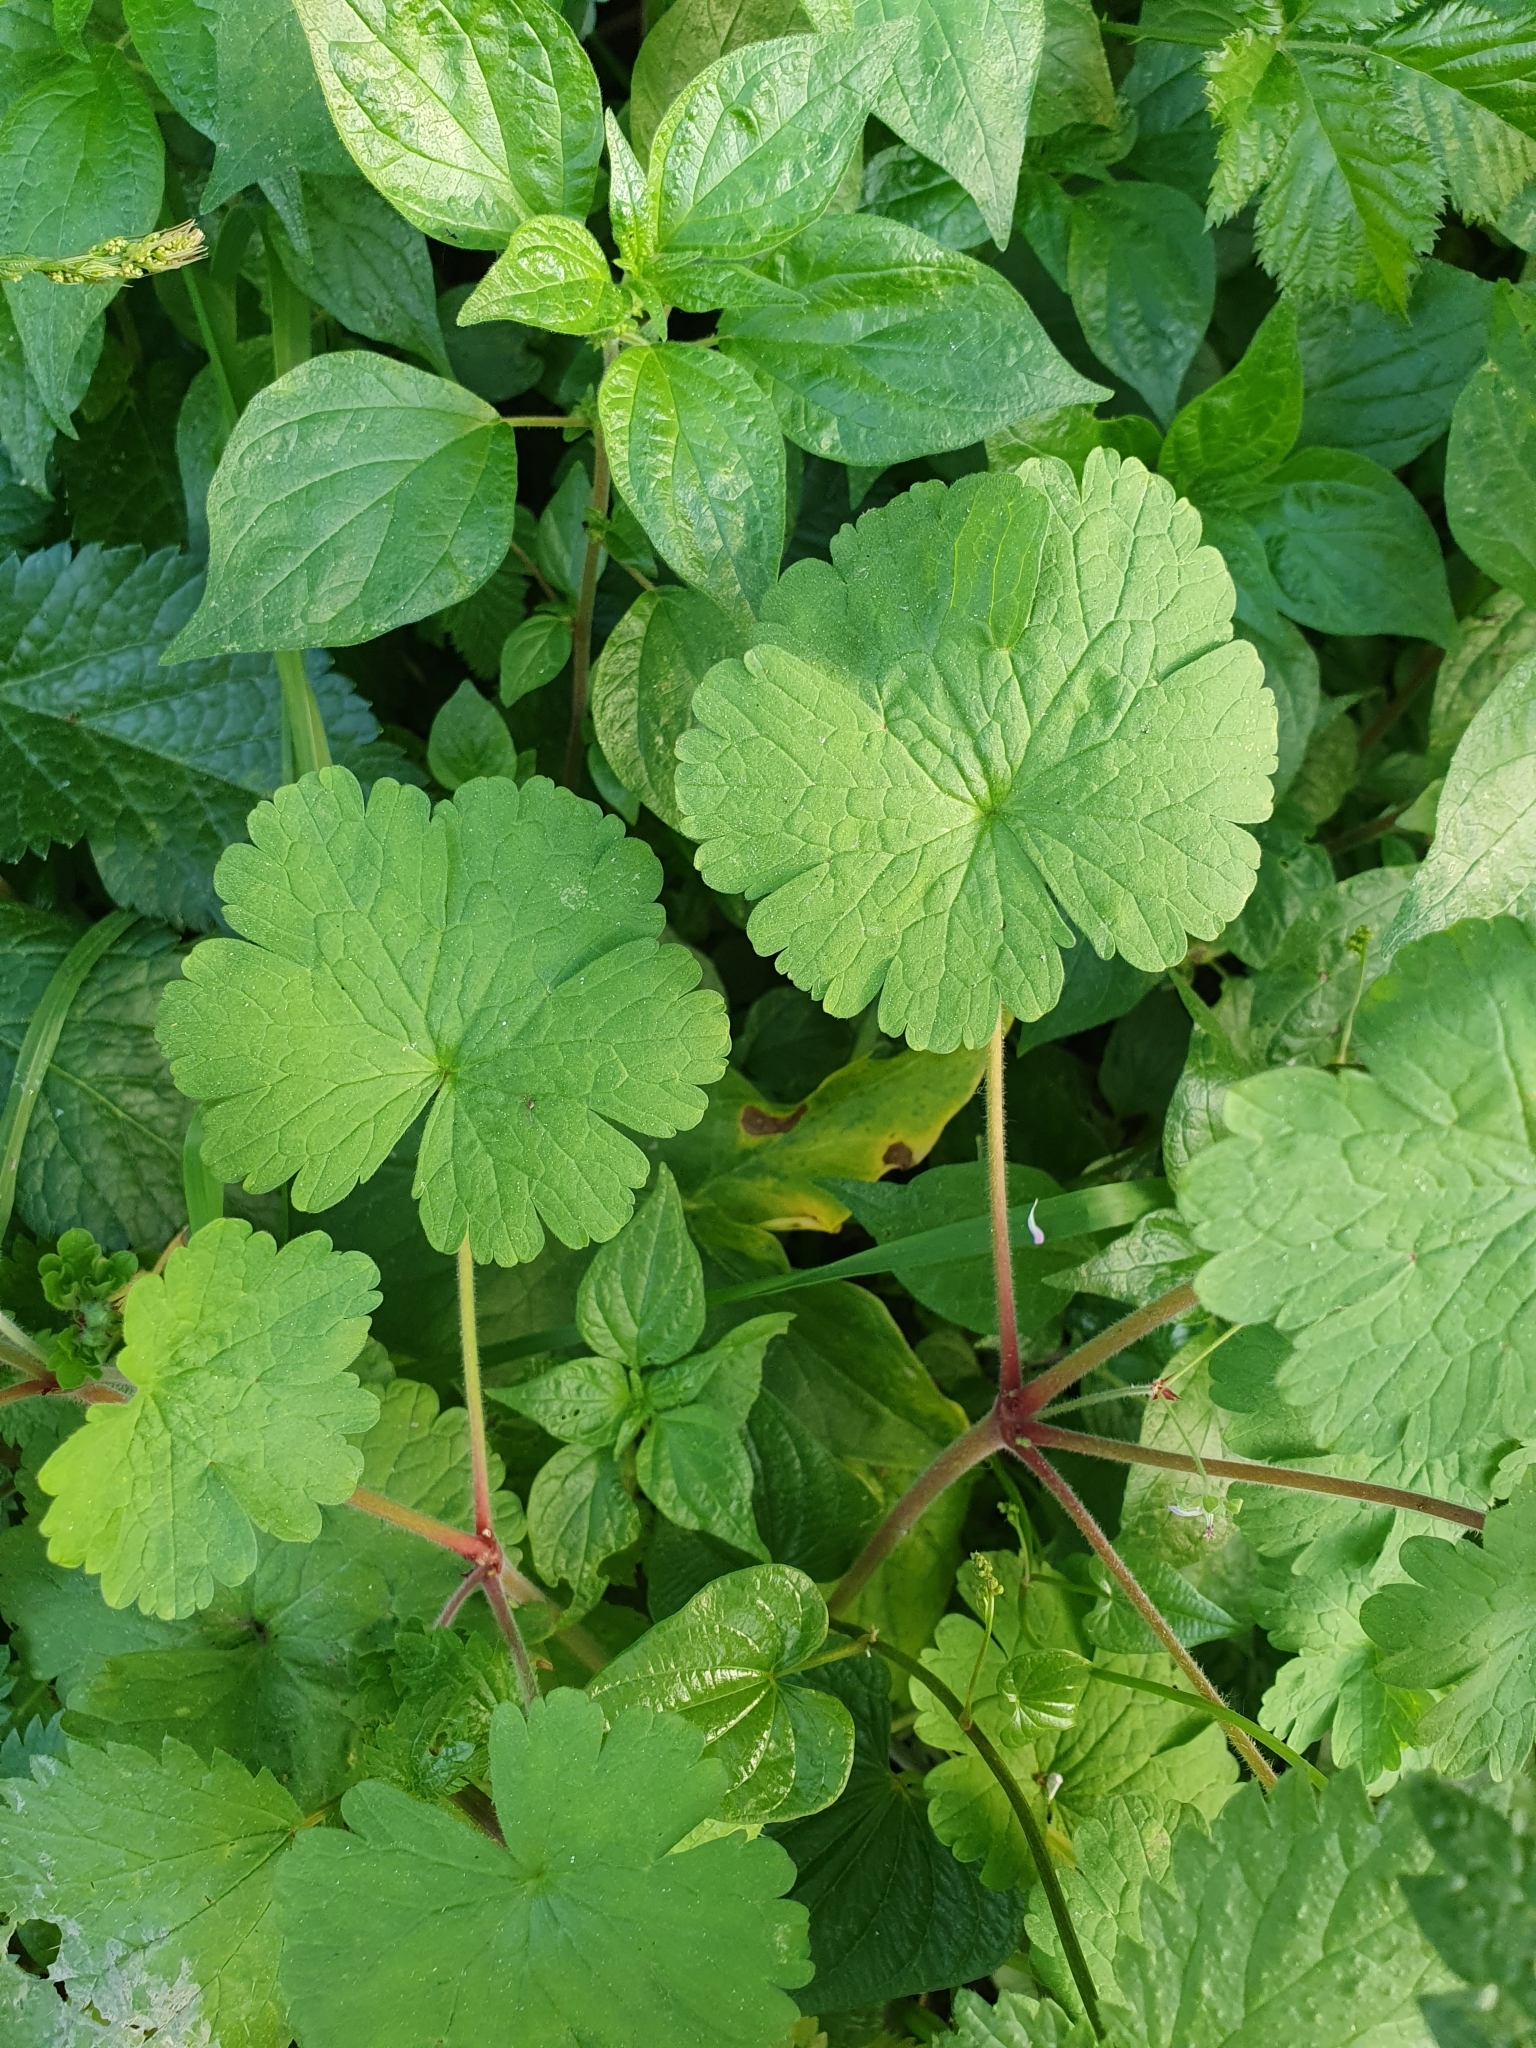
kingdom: Plantae
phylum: Tracheophyta
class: Magnoliopsida
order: Geraniales
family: Geraniaceae
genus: Geranium
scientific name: Geranium rotundifolium
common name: Round-leaved crane's-bill
